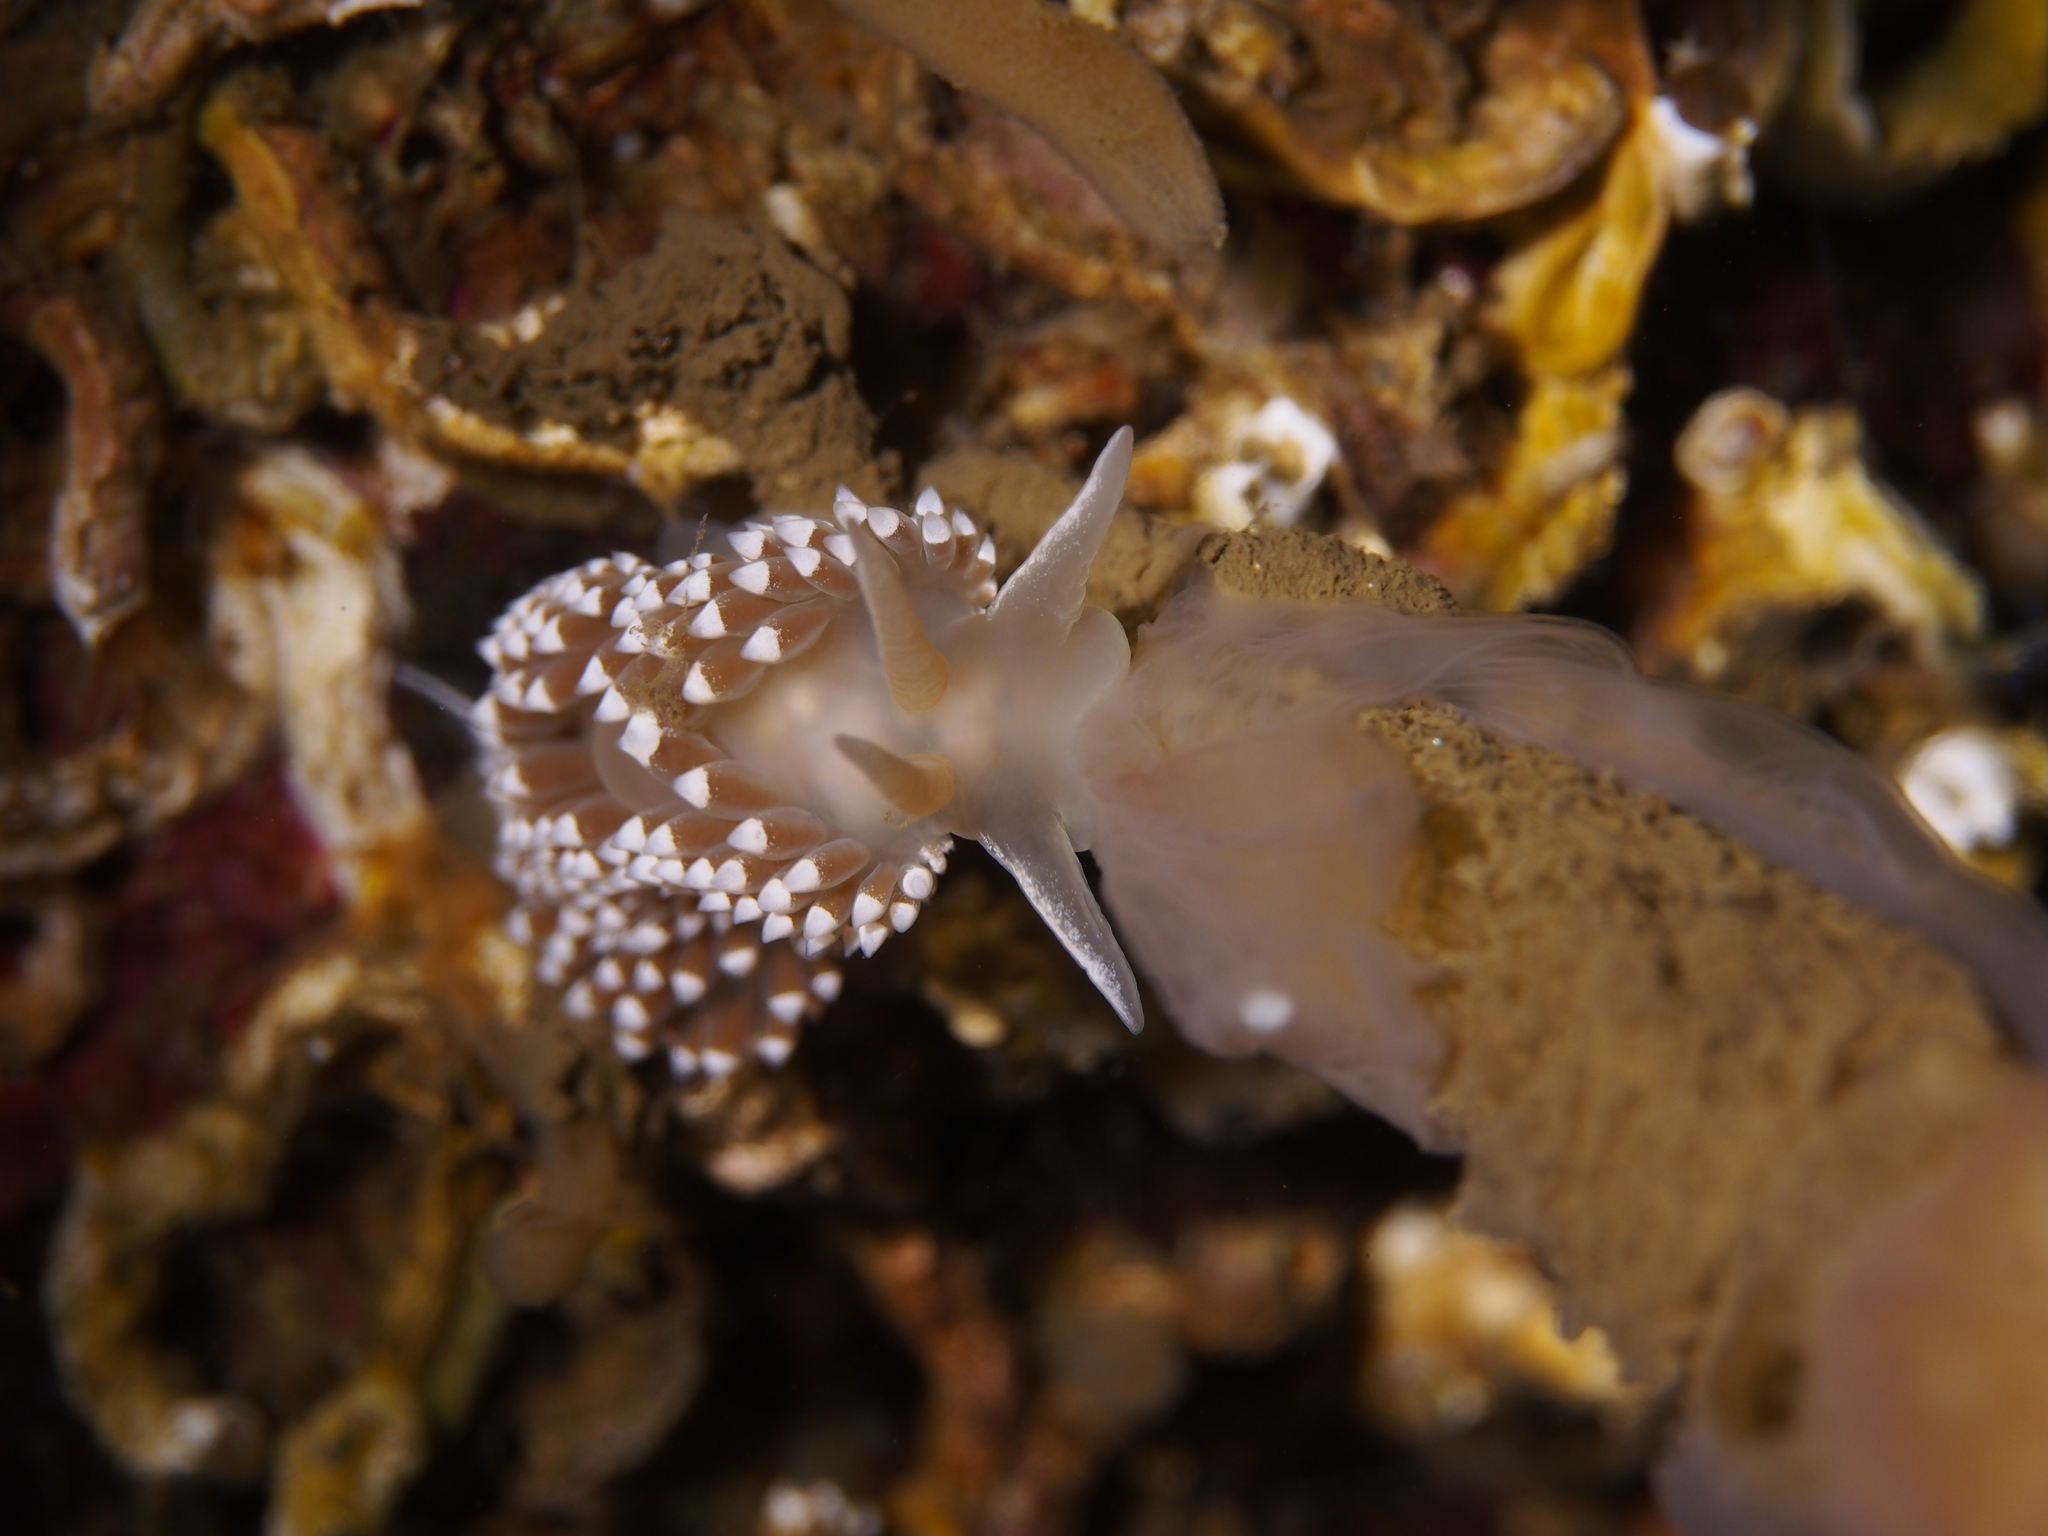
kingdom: Animalia
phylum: Mollusca
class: Gastropoda
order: Nudibranchia
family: Coryphellidae
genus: Coryphella
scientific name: Coryphella verrucosa
